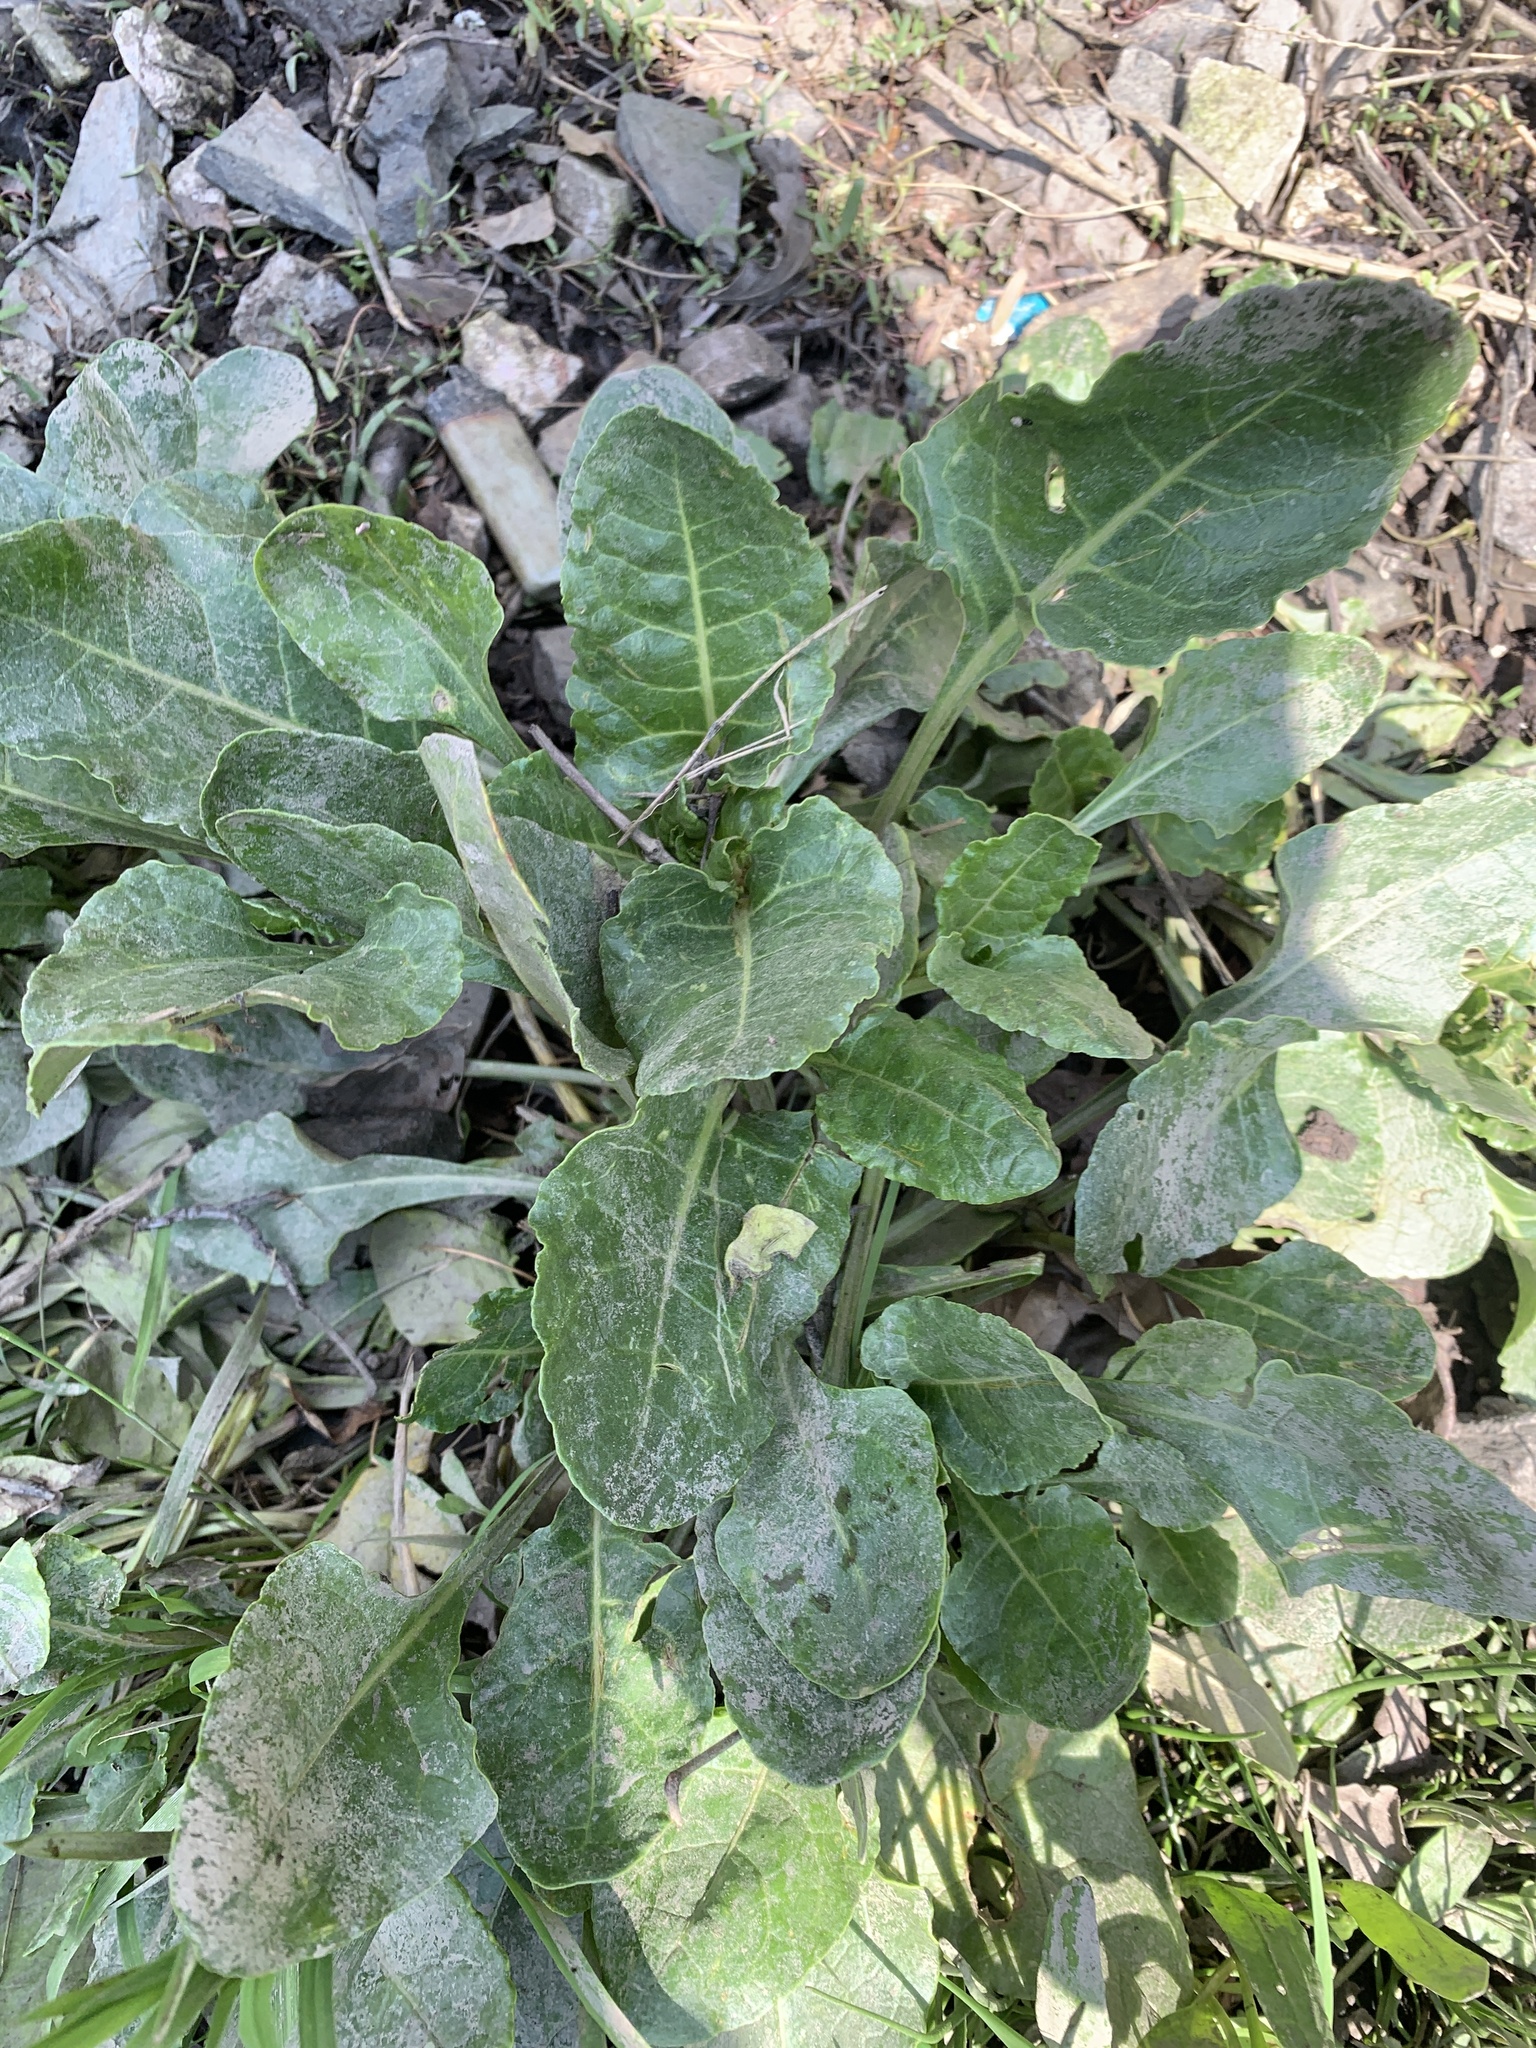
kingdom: Plantae
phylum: Tracheophyta
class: Magnoliopsida
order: Caryophyllales
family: Amaranthaceae
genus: Beta
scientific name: Beta vulgaris
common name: Beet
